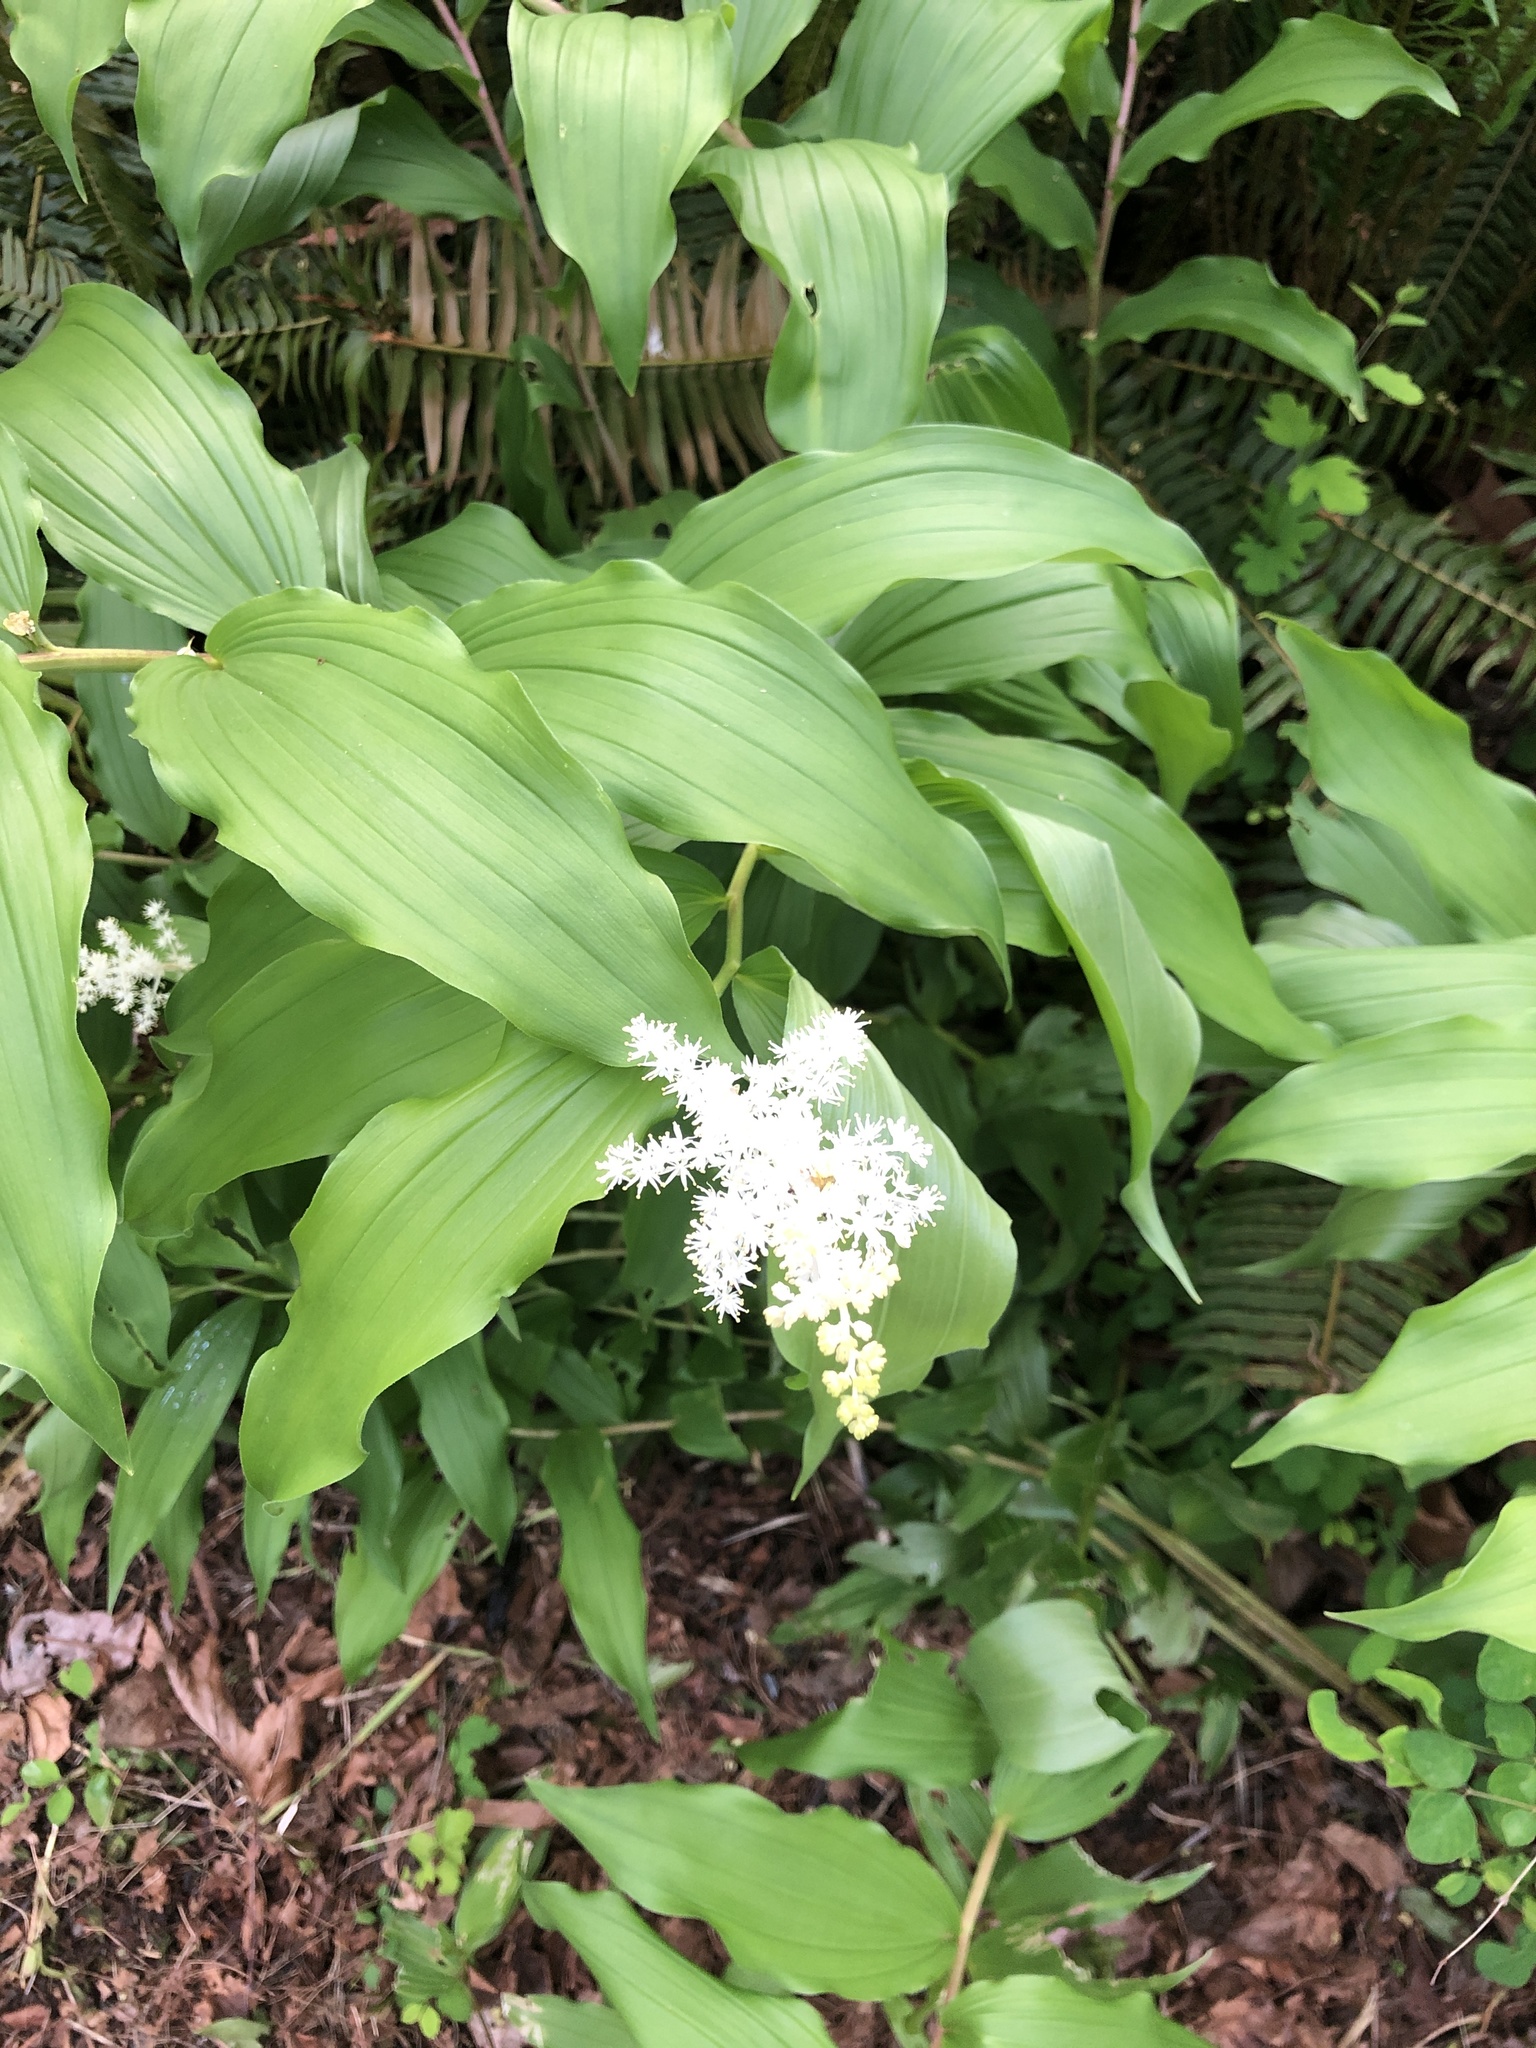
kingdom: Plantae
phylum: Tracheophyta
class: Liliopsida
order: Asparagales
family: Asparagaceae
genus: Maianthemum
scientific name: Maianthemum racemosum
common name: False spikenard
